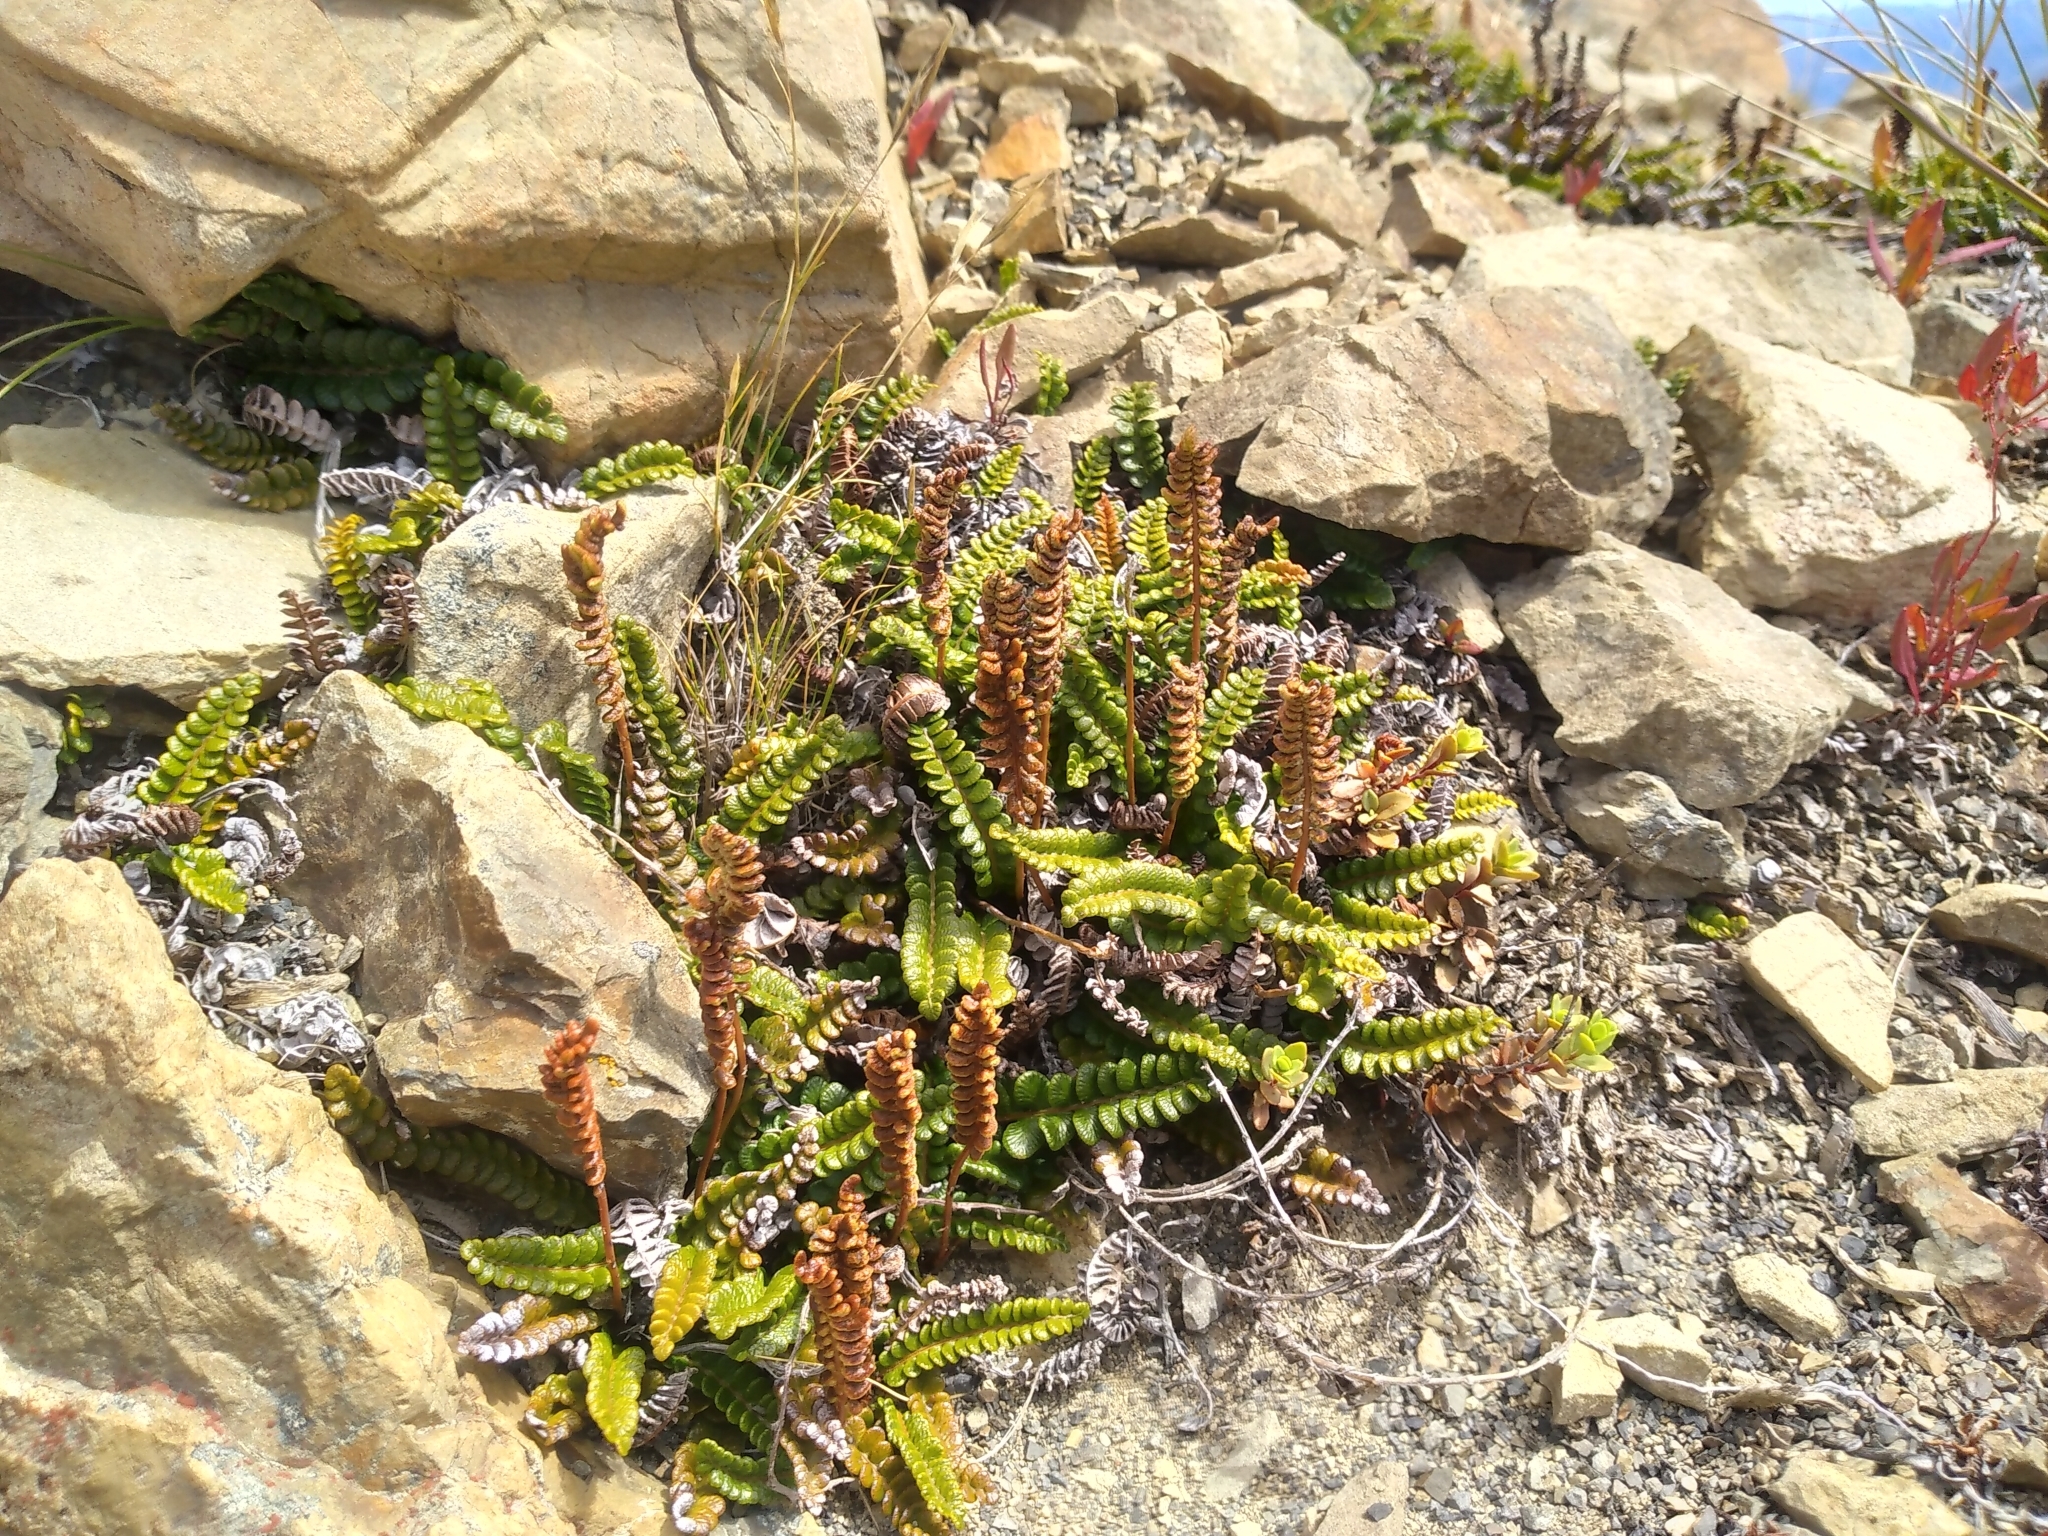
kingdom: Plantae
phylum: Tracheophyta
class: Polypodiopsida
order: Polypodiales
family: Blechnaceae
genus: Austroblechnum
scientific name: Austroblechnum penna-marina
